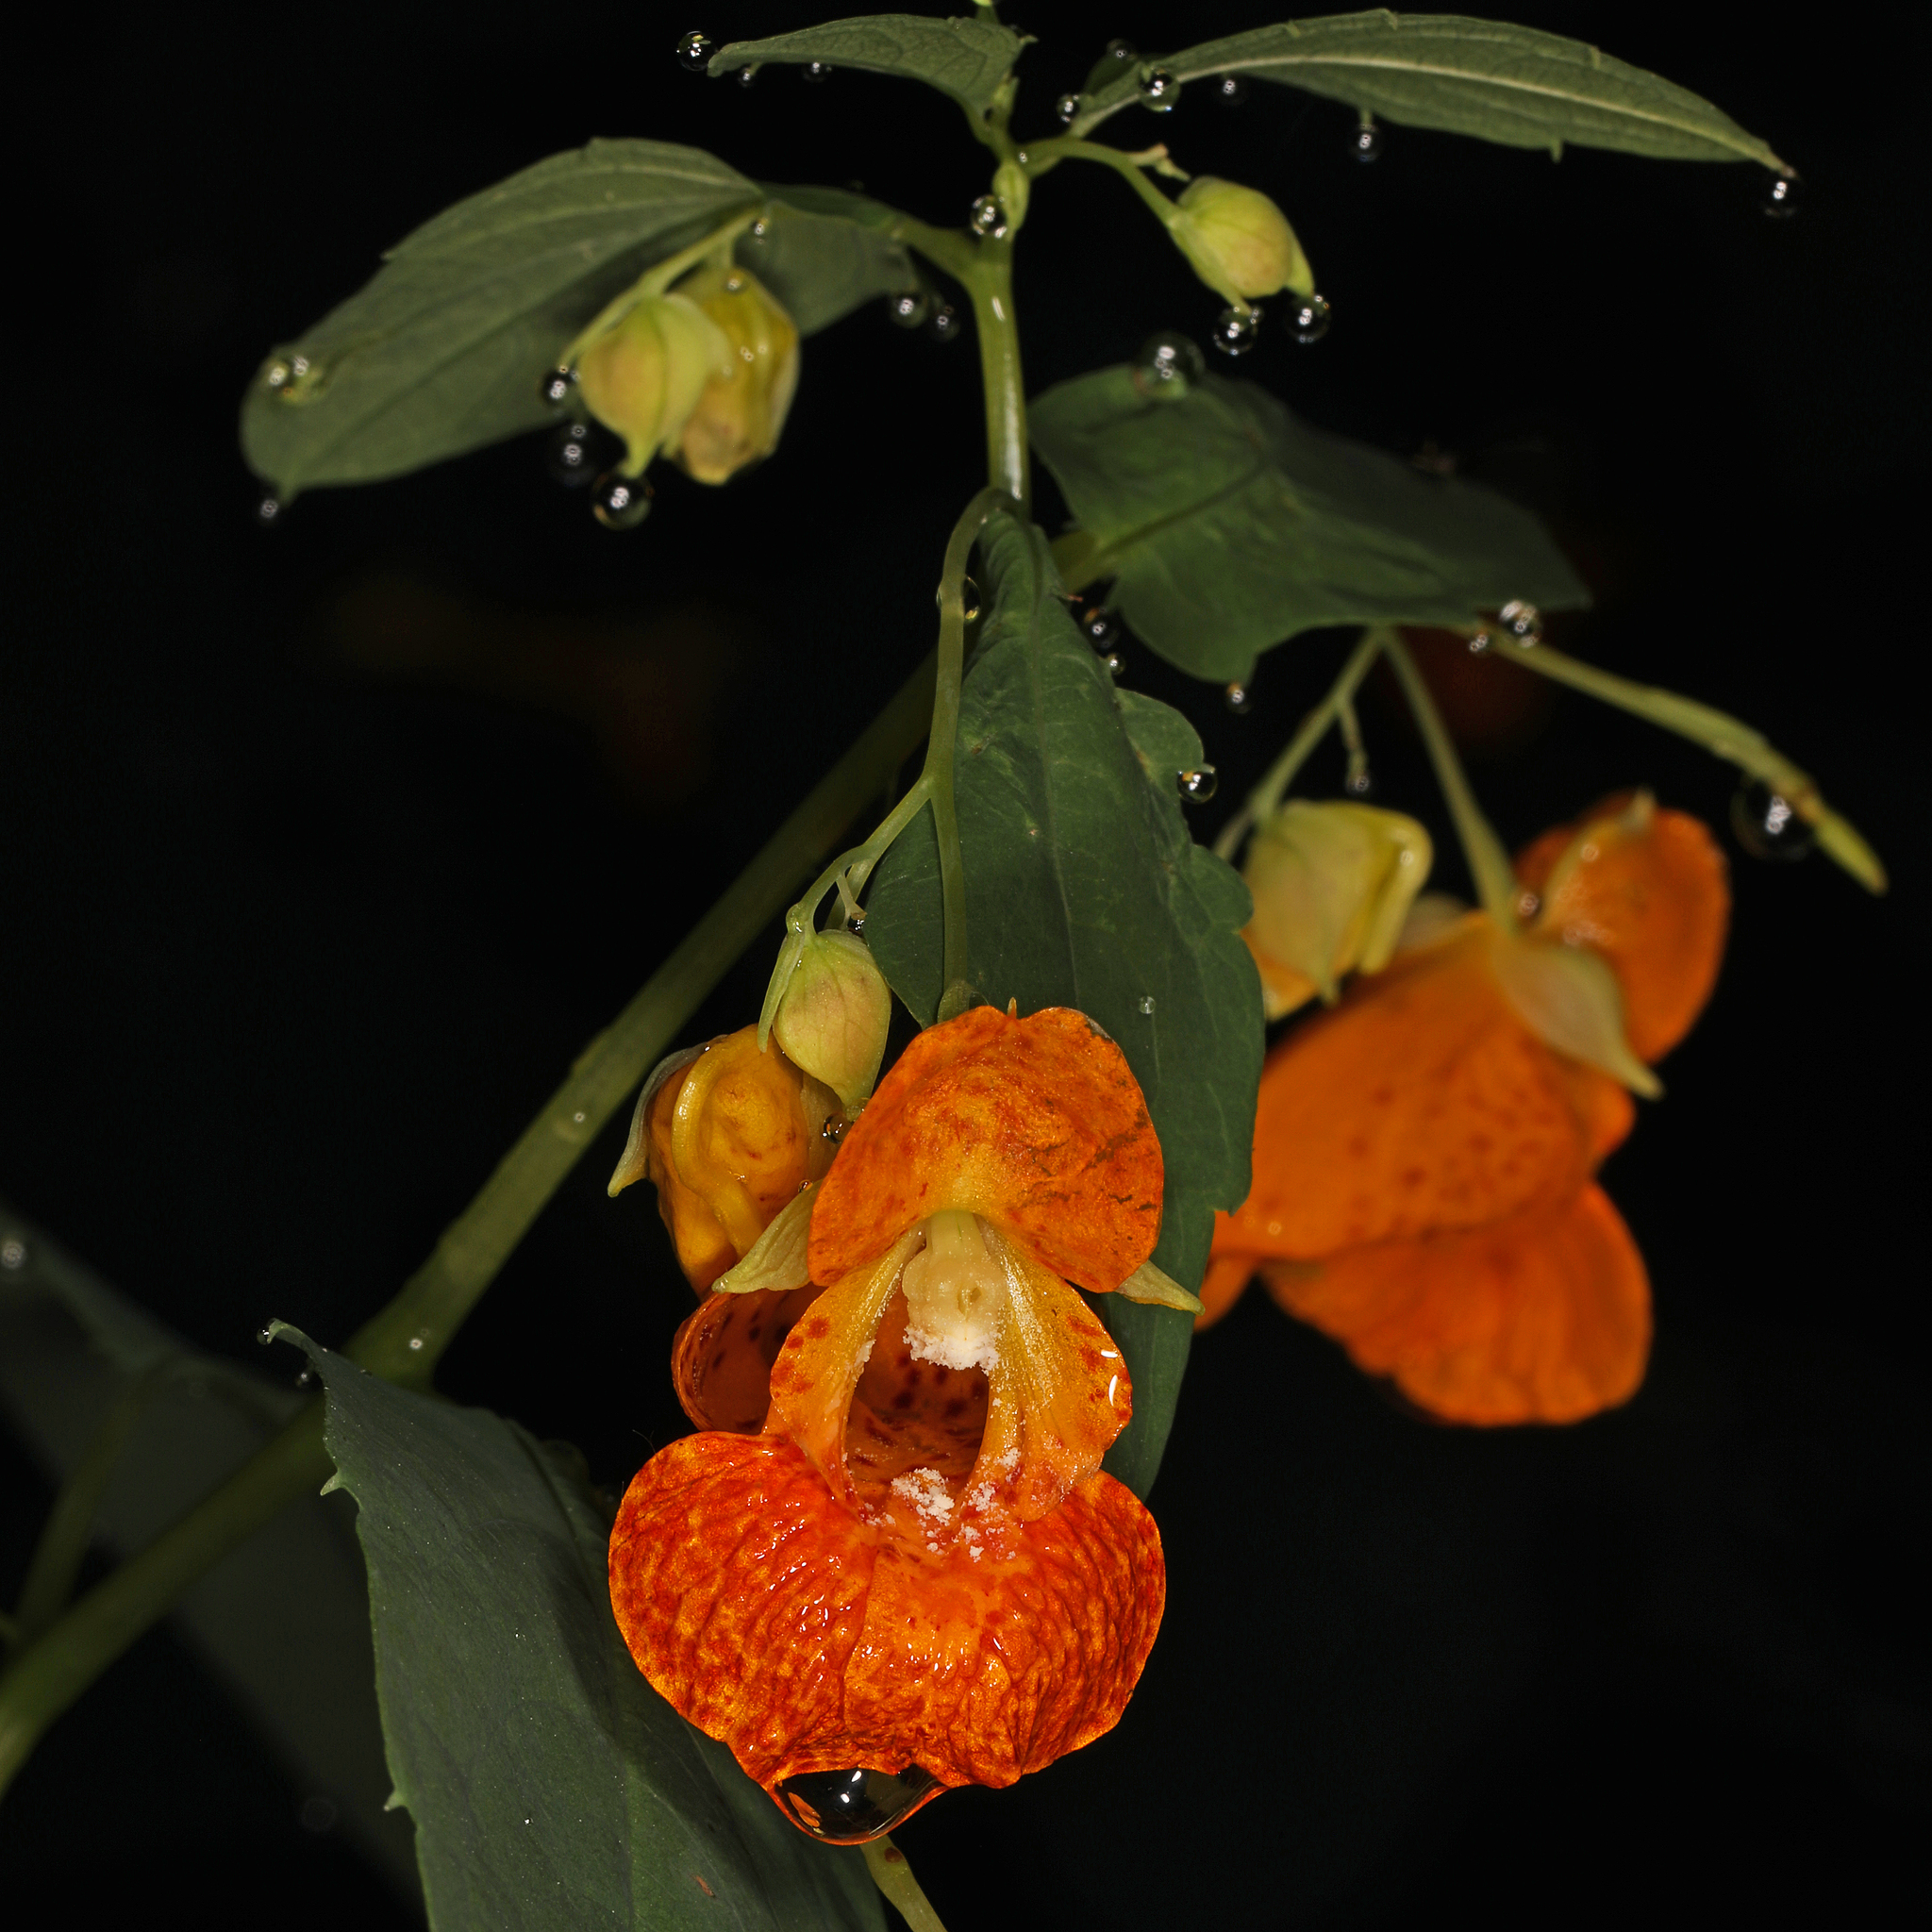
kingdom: Plantae
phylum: Tracheophyta
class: Magnoliopsida
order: Ericales
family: Balsaminaceae
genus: Impatiens
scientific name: Impatiens capensis
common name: Orange balsam
